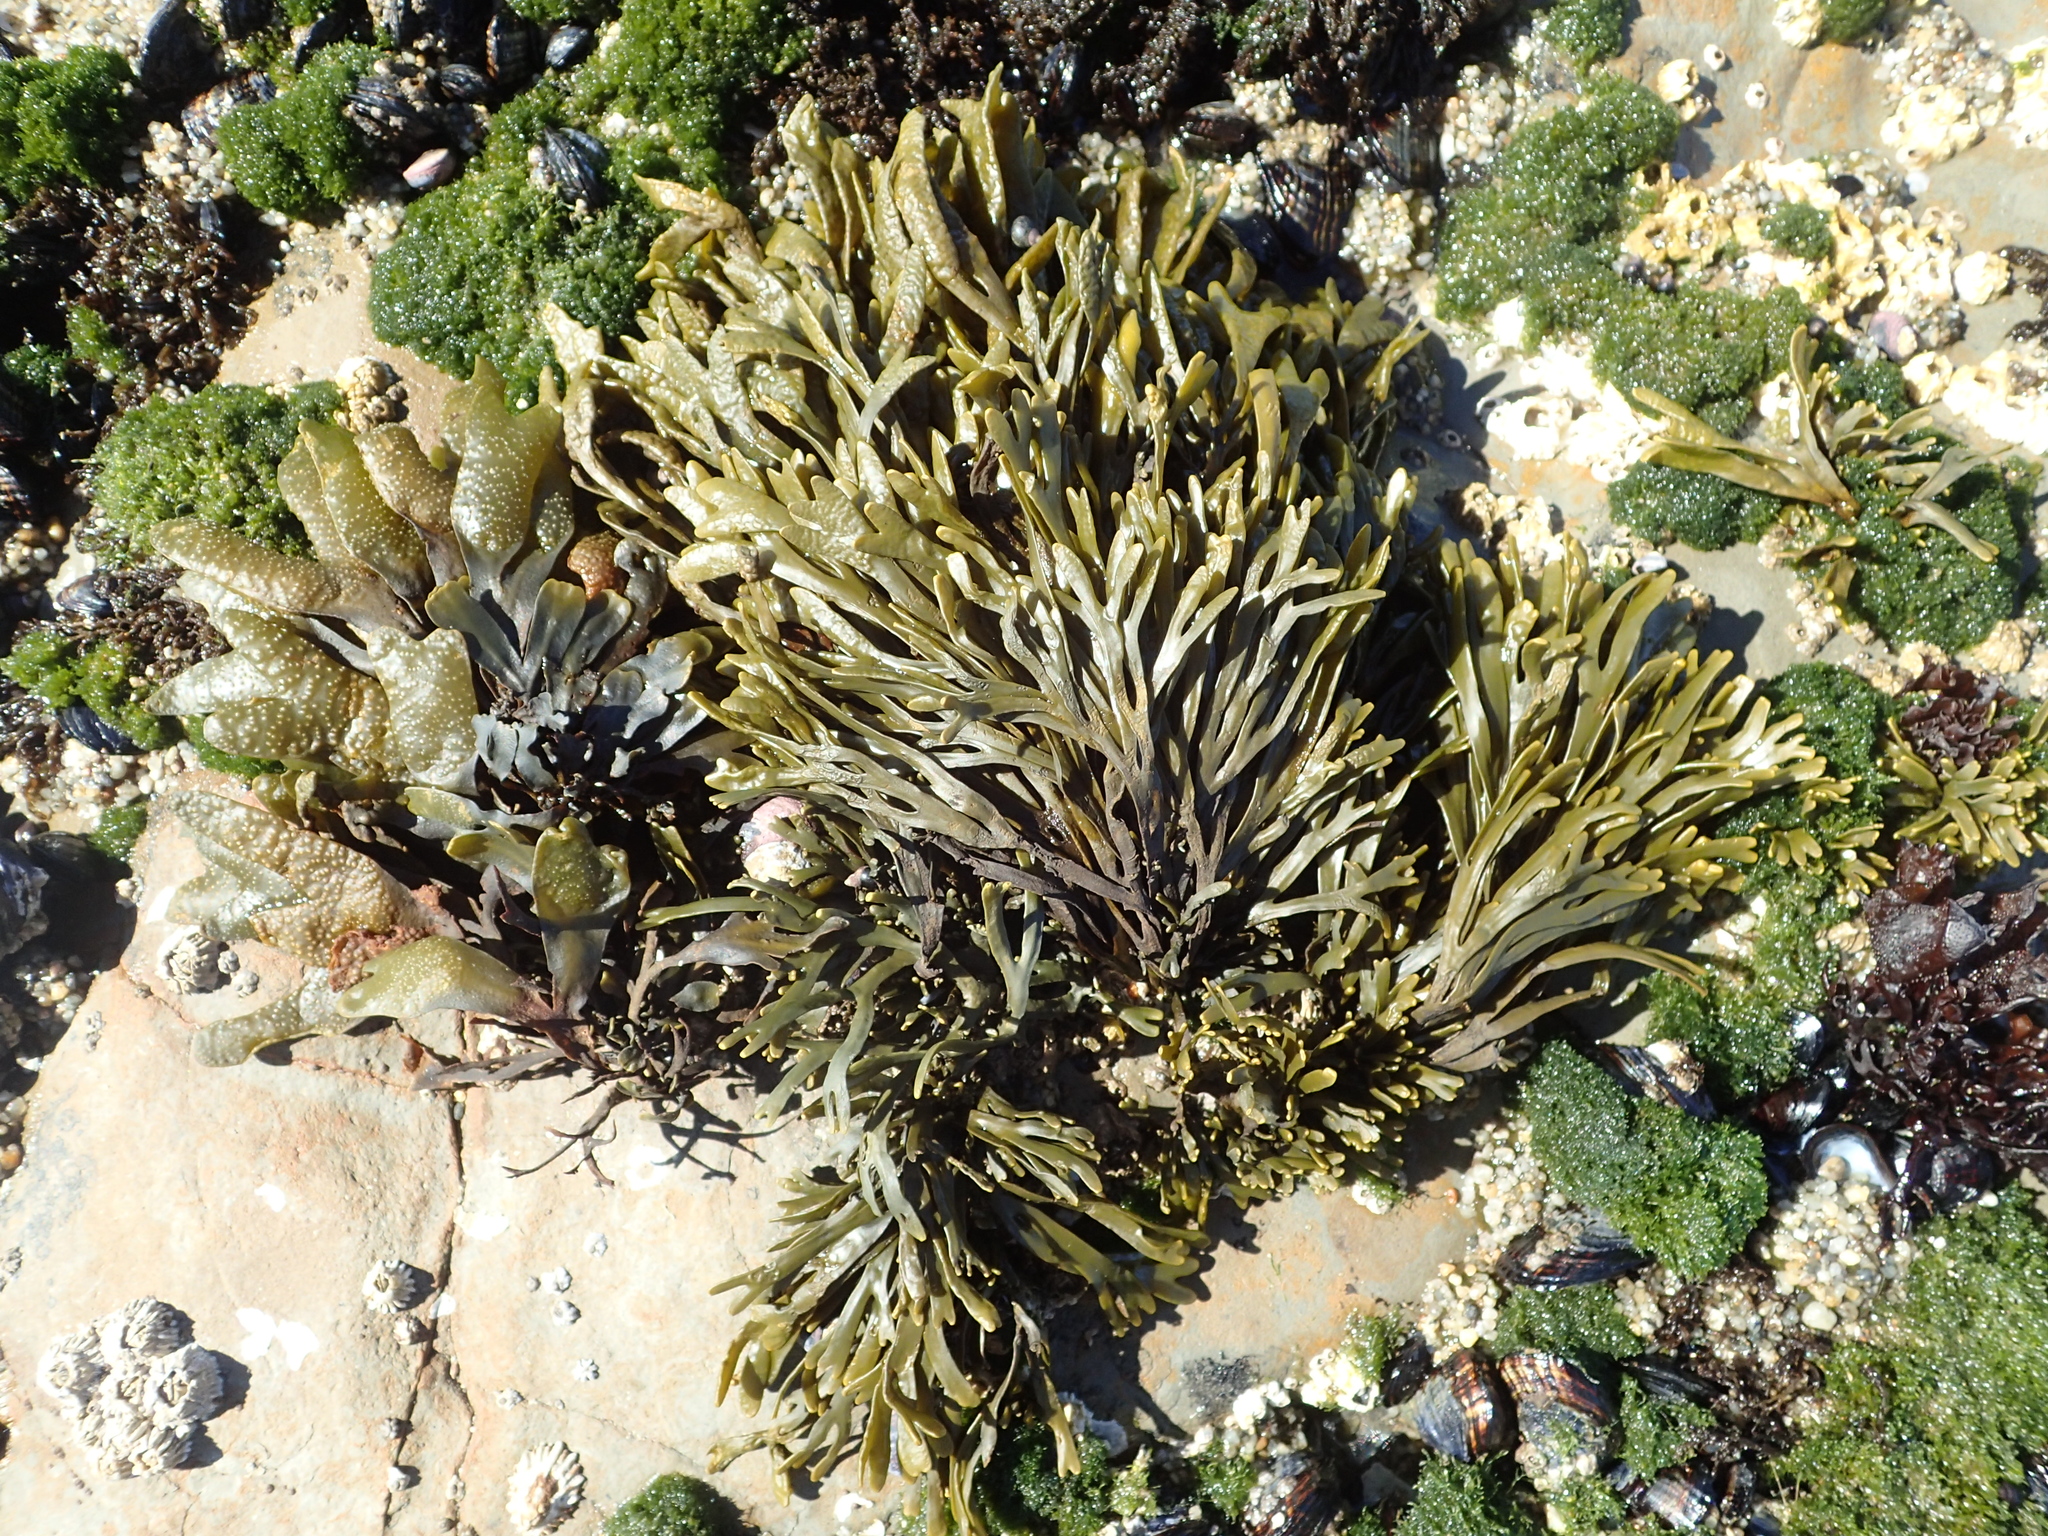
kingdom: Chromista
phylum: Ochrophyta
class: Phaeophyceae
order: Fucales
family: Fucaceae
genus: Pelvetiopsis
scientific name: Pelvetiopsis limitata
